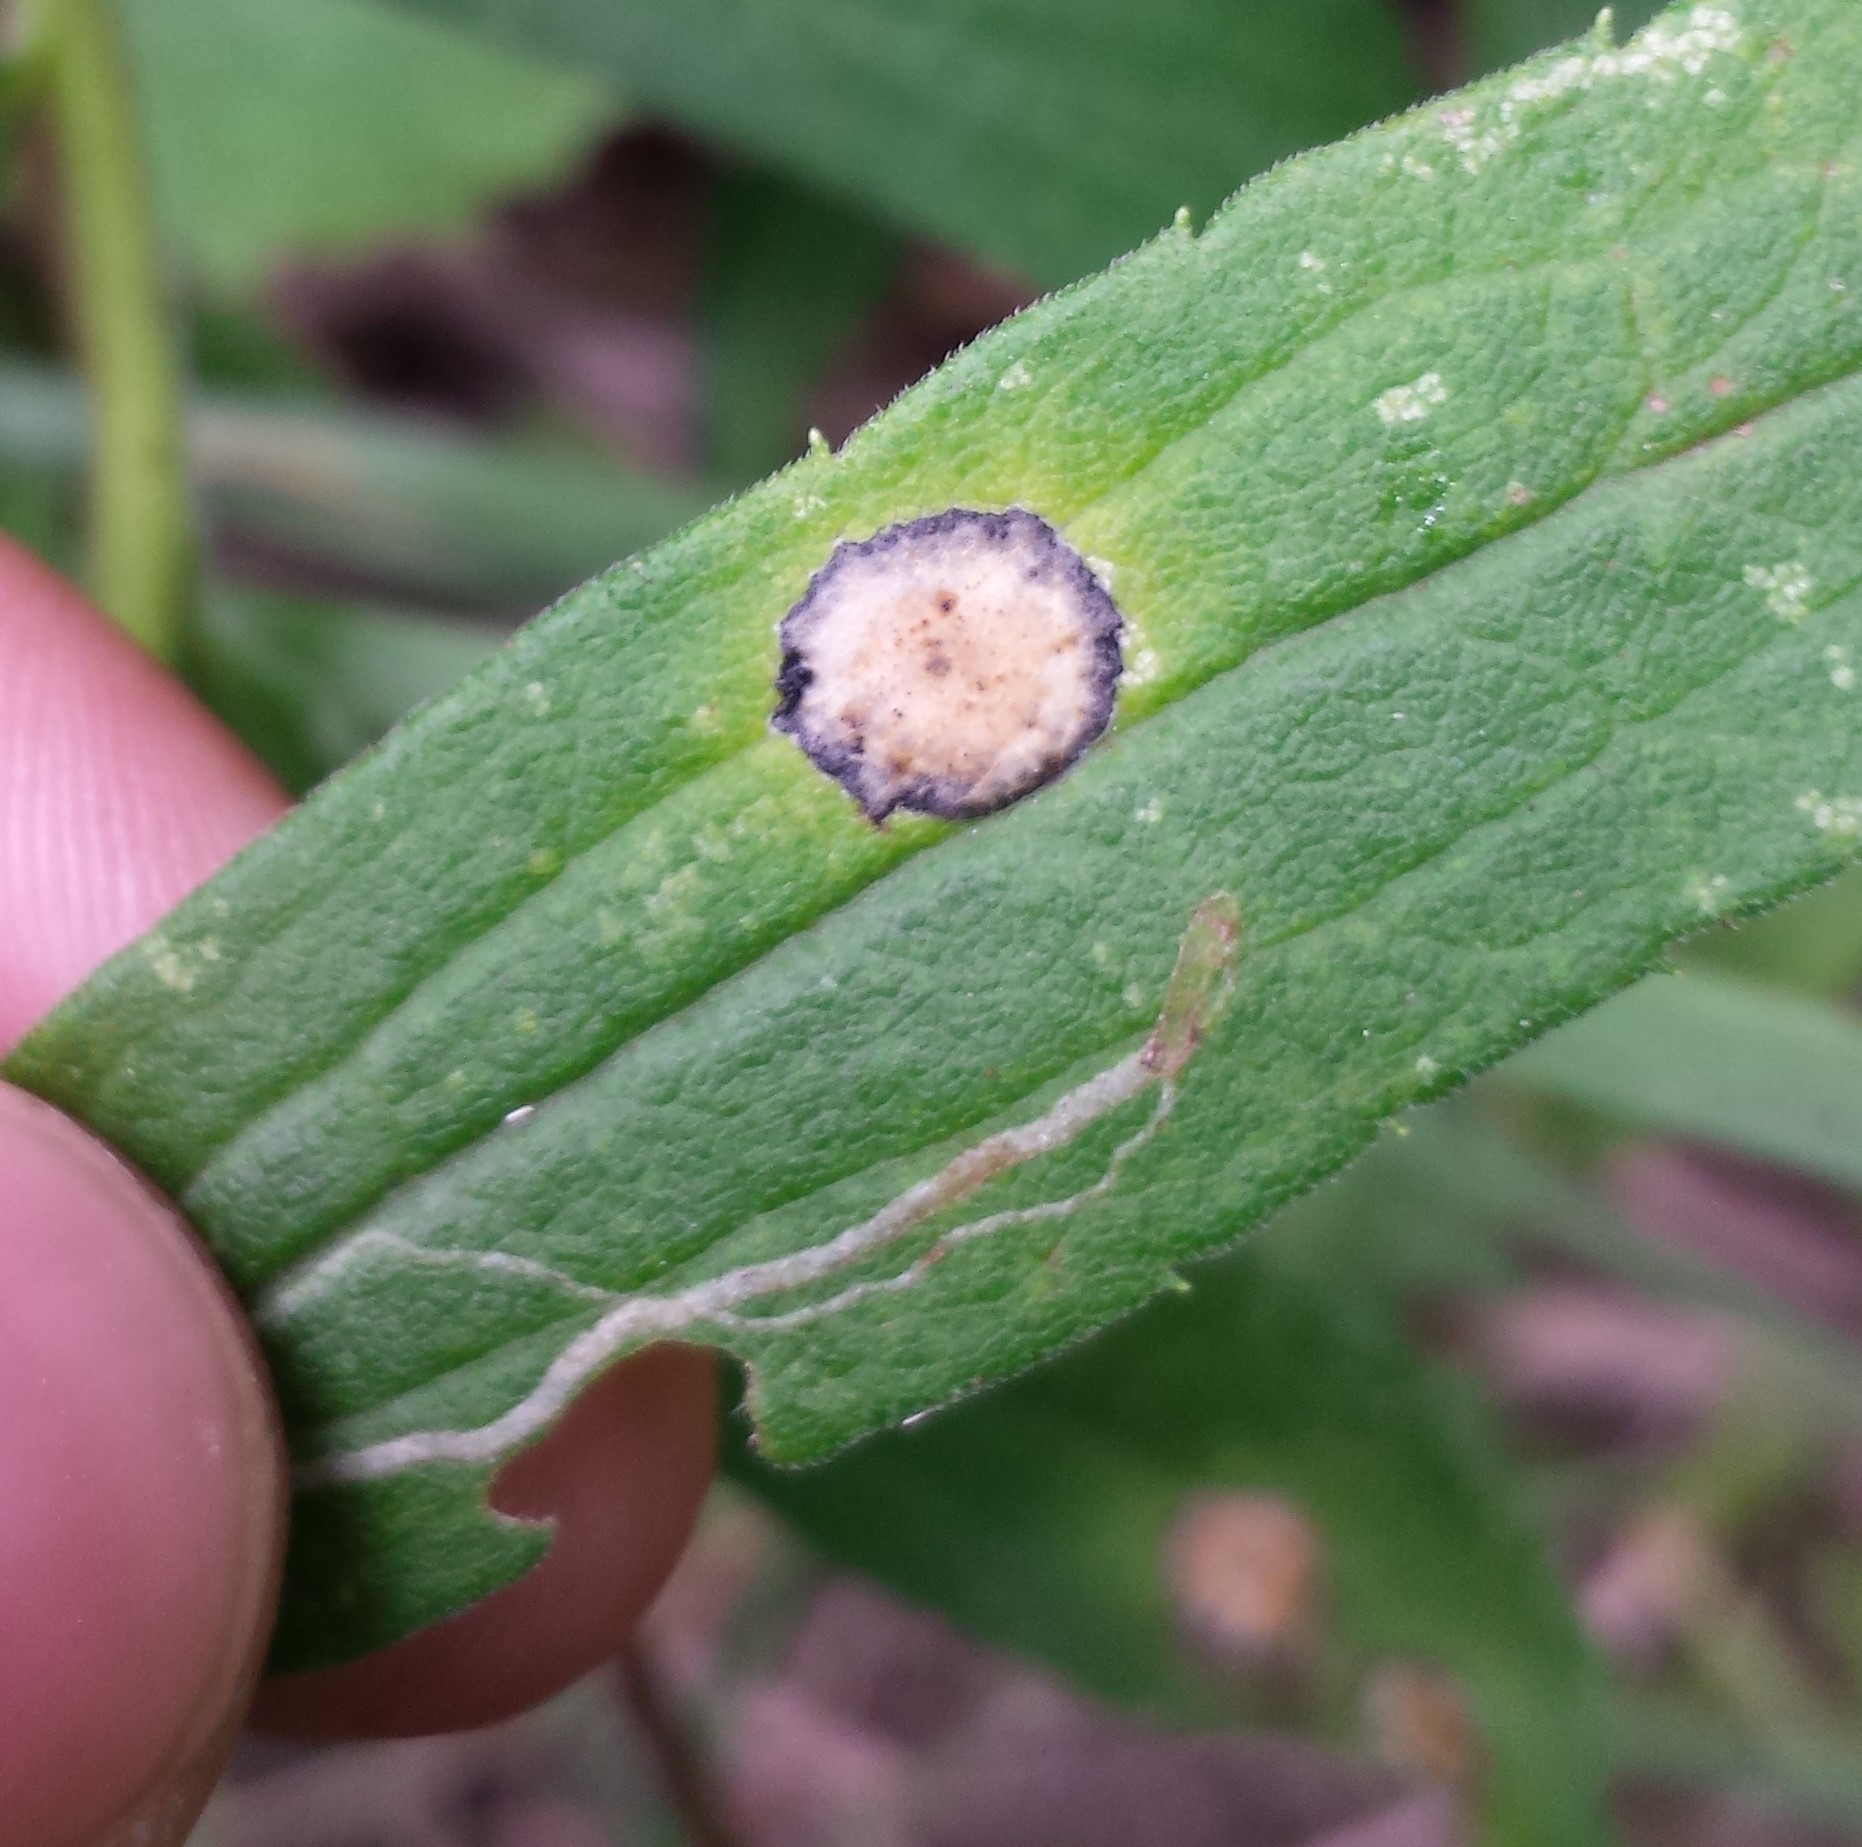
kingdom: Animalia
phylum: Arthropoda
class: Insecta
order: Diptera
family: Cecidomyiidae
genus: Asteromyia
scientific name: Asteromyia carbonifera
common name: Carbonifera goldenrod gall midge
